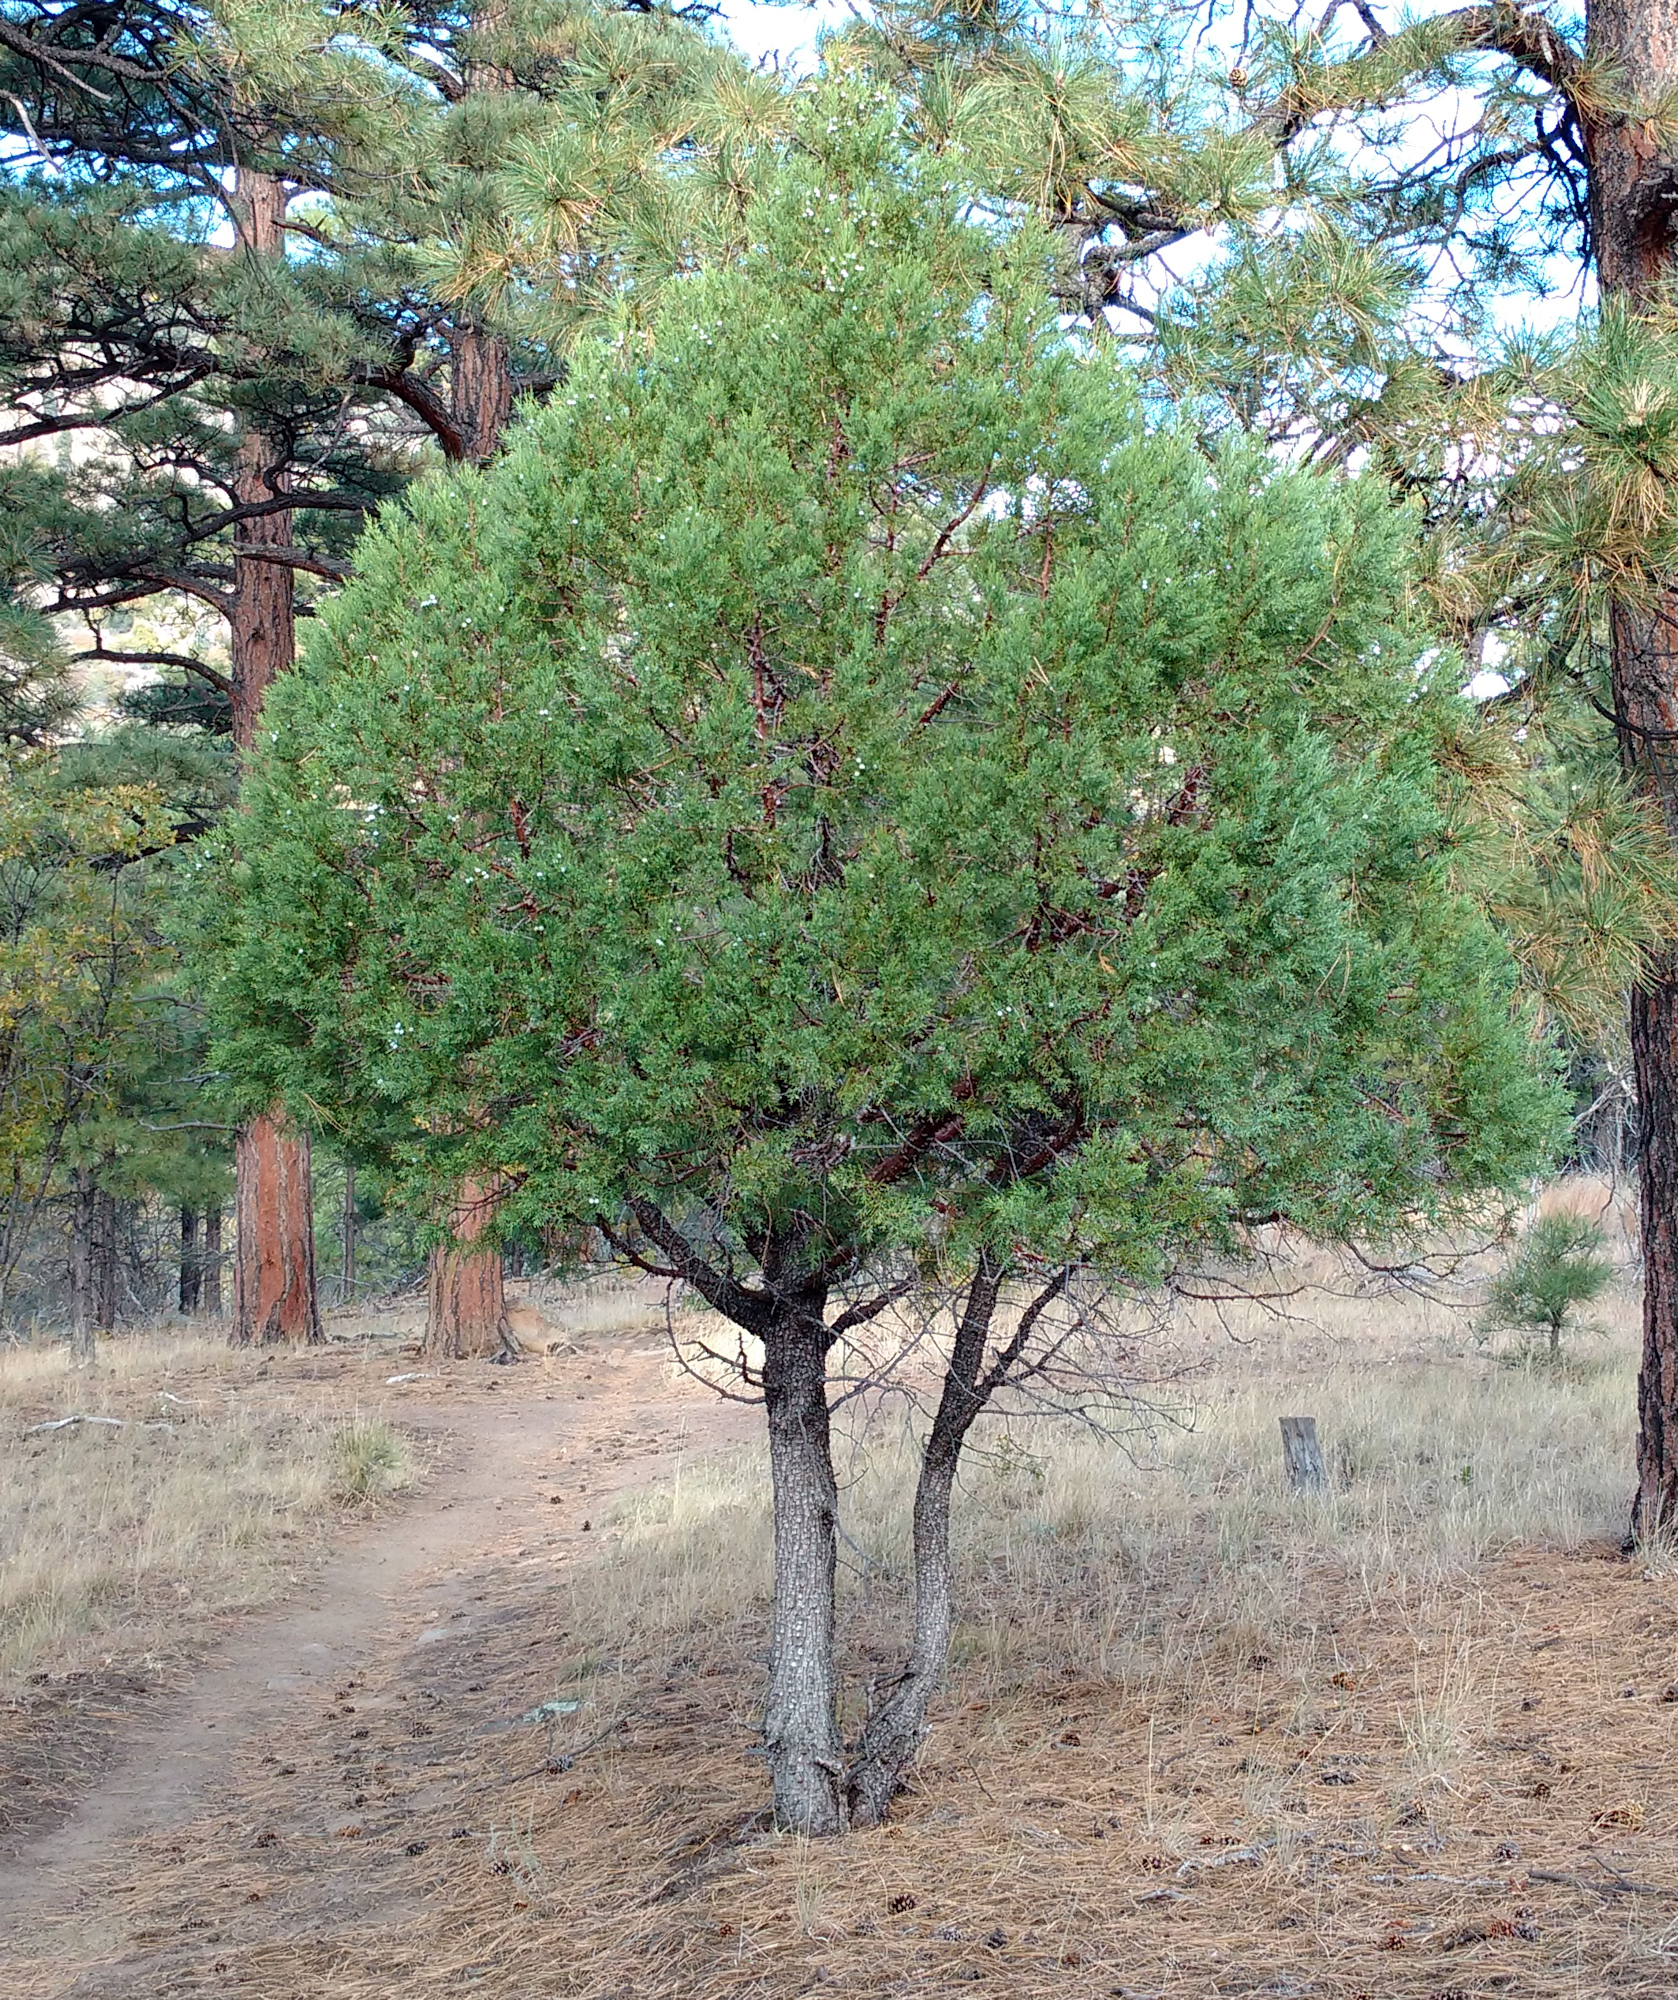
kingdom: Plantae
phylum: Tracheophyta
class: Pinopsida
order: Pinales
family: Cupressaceae
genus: Juniperus
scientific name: Juniperus deppeana
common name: Alligator juniper
